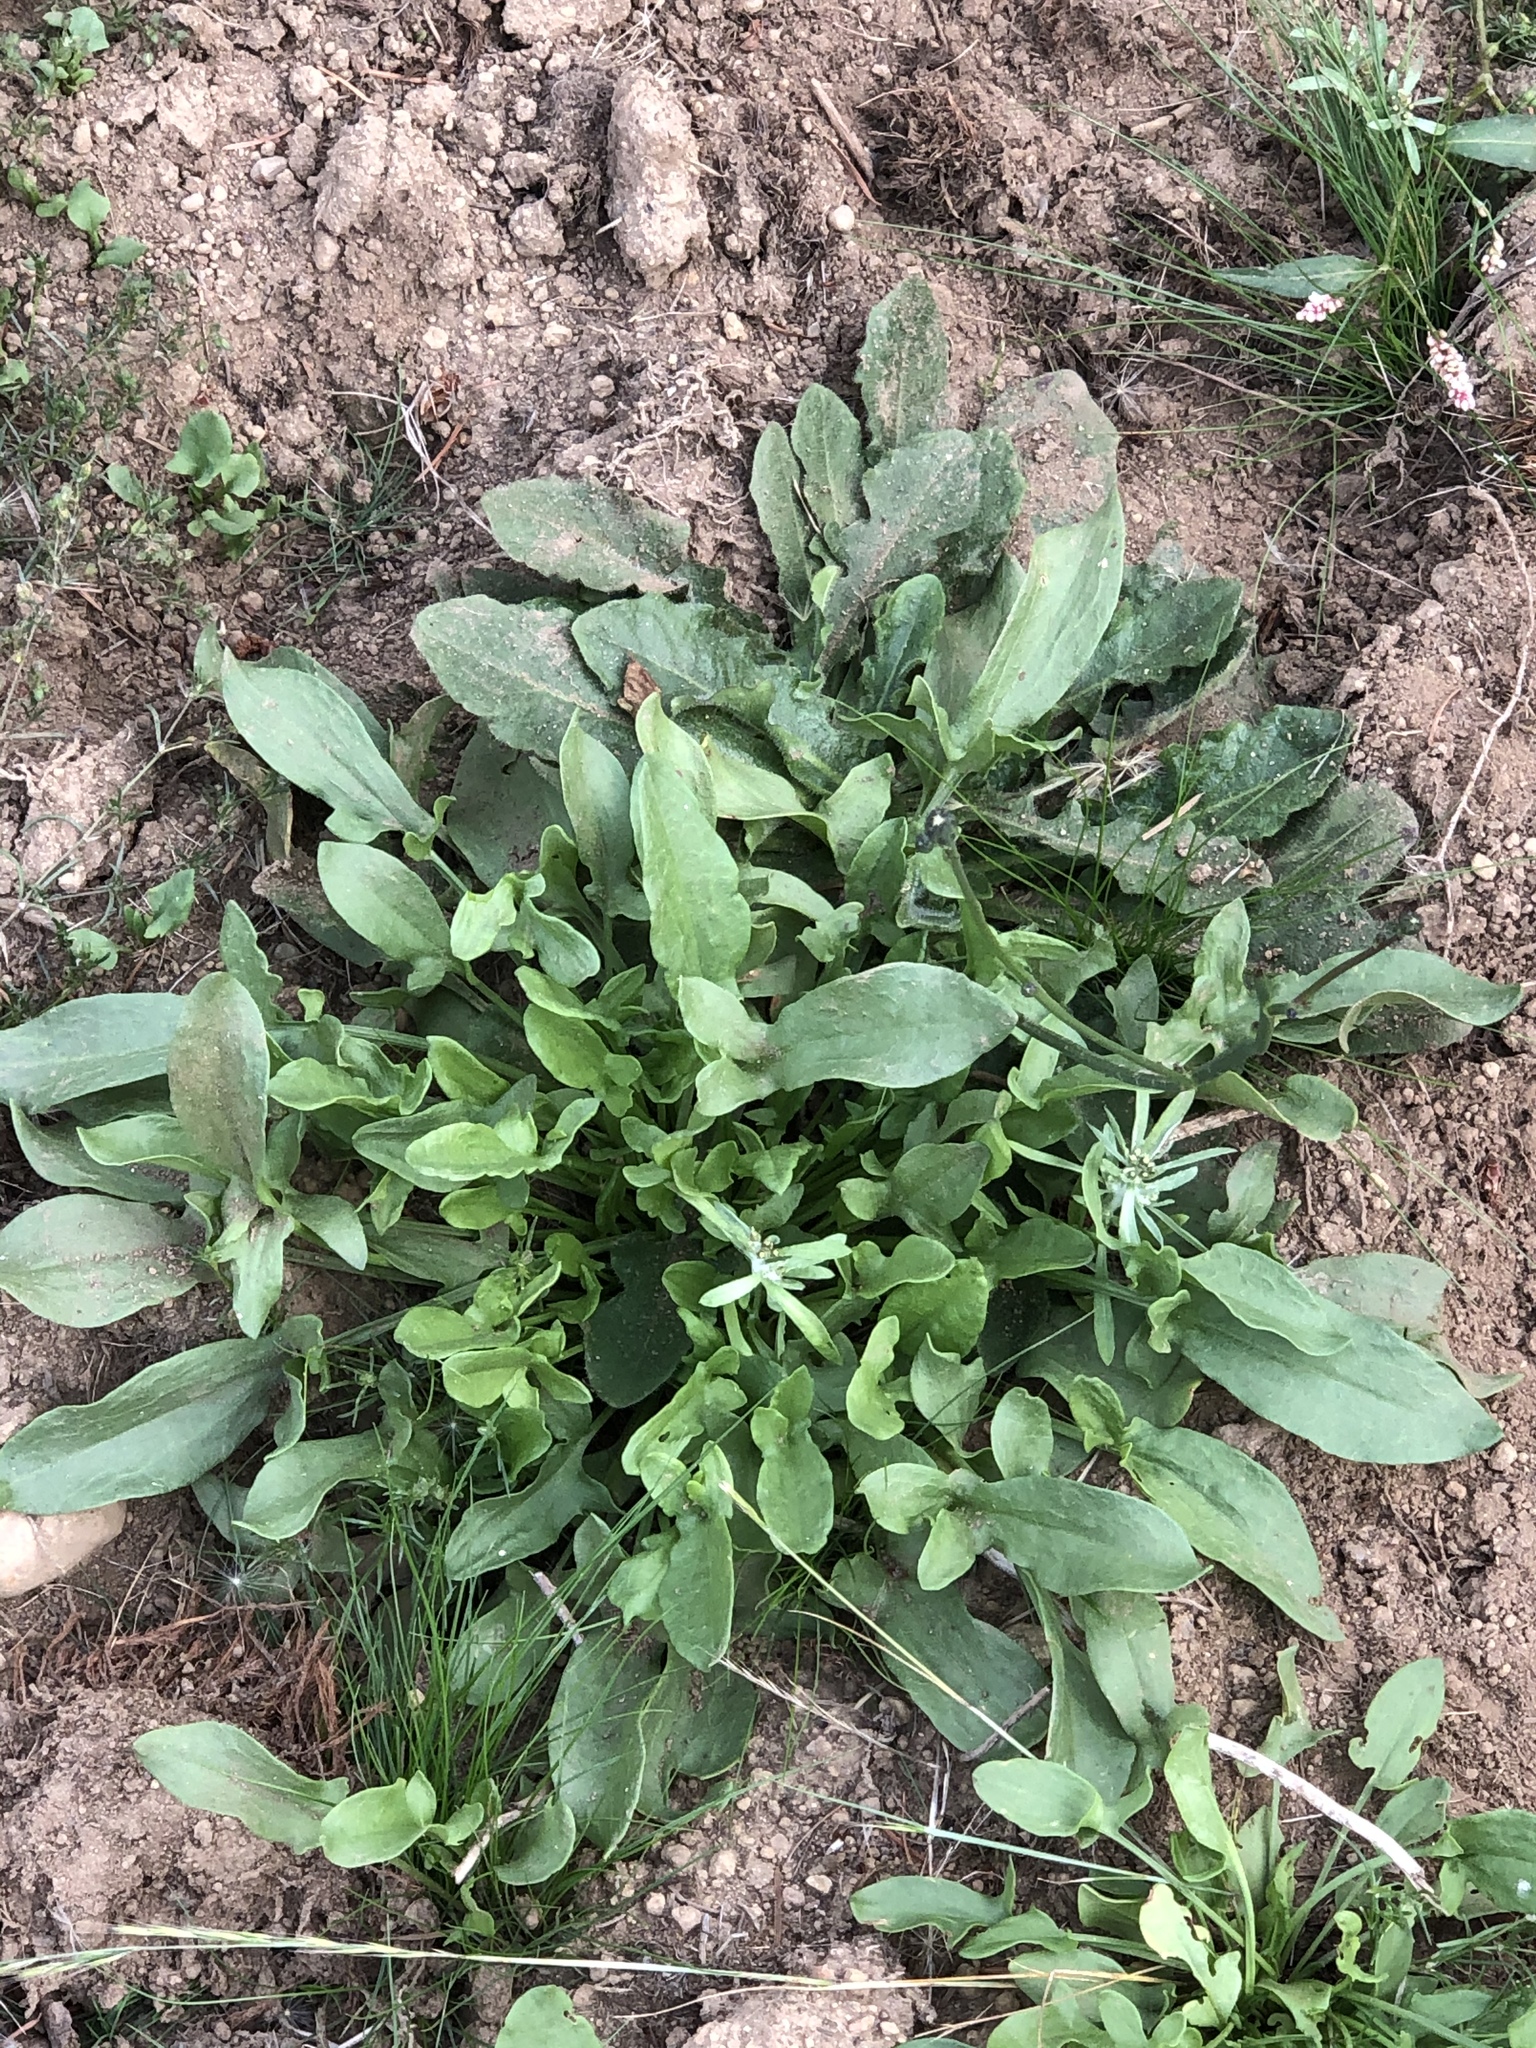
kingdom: Plantae
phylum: Tracheophyta
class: Magnoliopsida
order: Caryophyllales
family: Polygonaceae
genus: Rumex
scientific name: Rumex acetosella
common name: Common sheep sorrel
